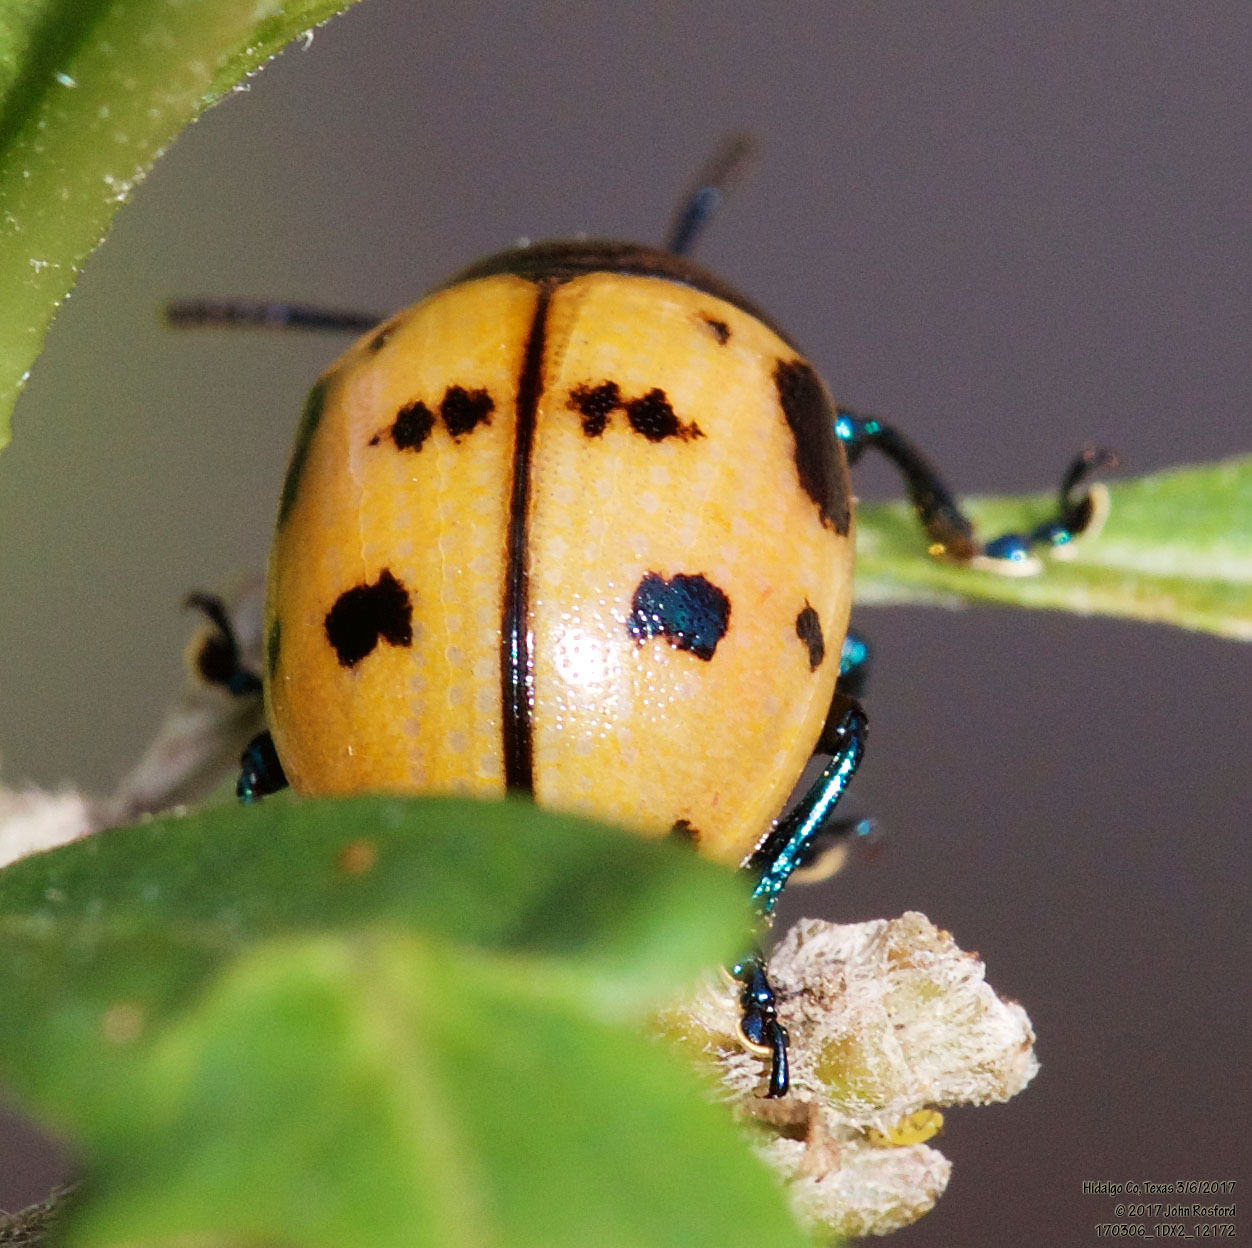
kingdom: Animalia
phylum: Arthropoda
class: Insecta
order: Coleoptera
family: Chrysomelidae
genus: Labidomera
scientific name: Labidomera clivicollis
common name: Swamp milkweed leaf beetle
